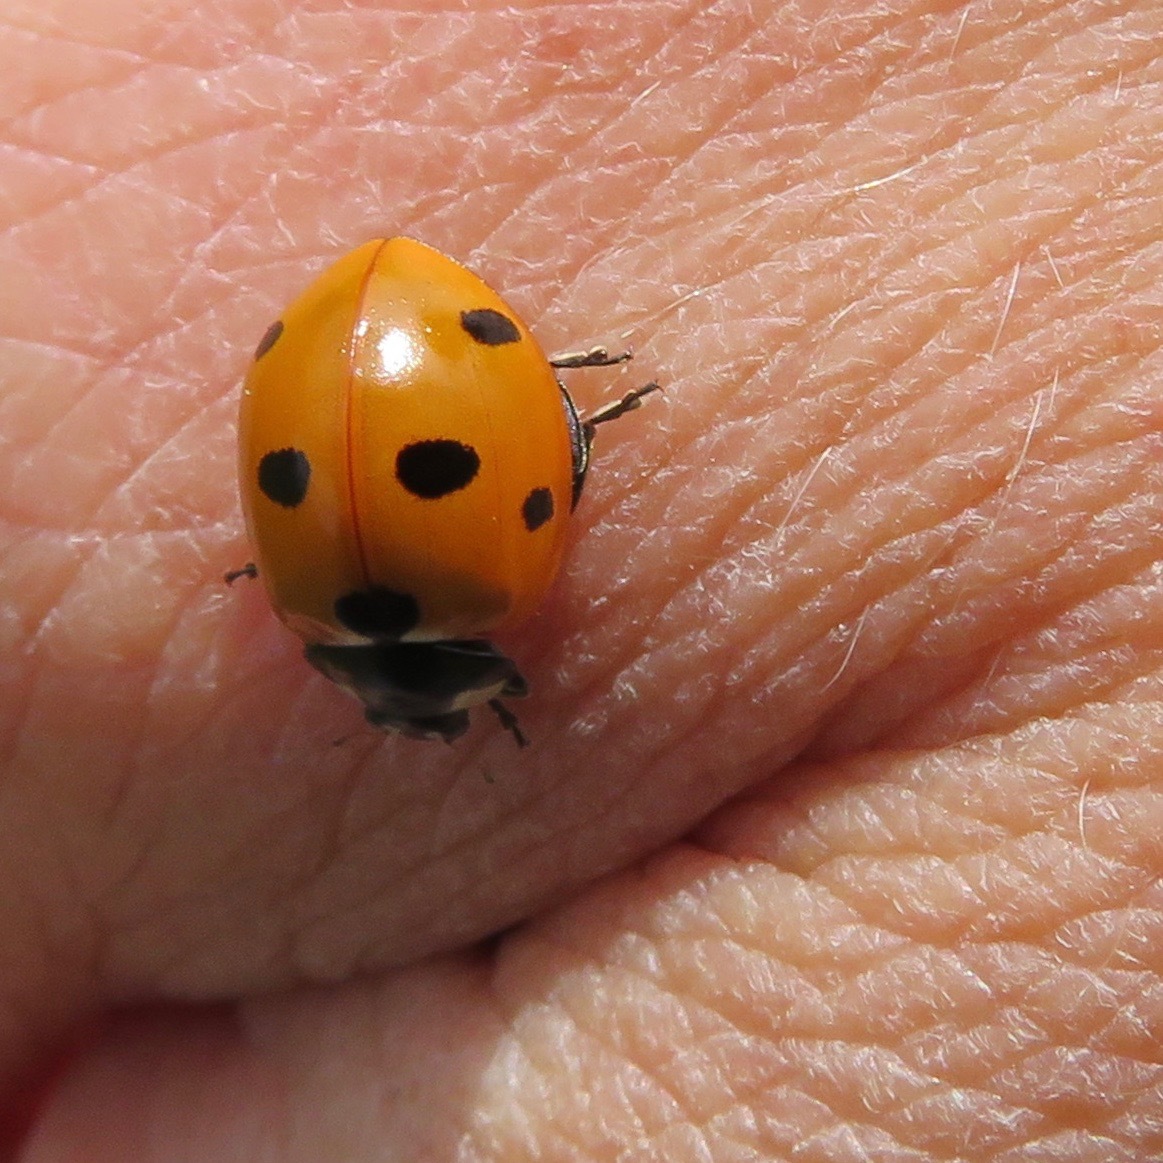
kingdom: Animalia
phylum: Arthropoda
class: Insecta
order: Coleoptera
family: Coccinellidae
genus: Coccinella
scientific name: Coccinella septempunctata
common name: Sevenspotted lady beetle
